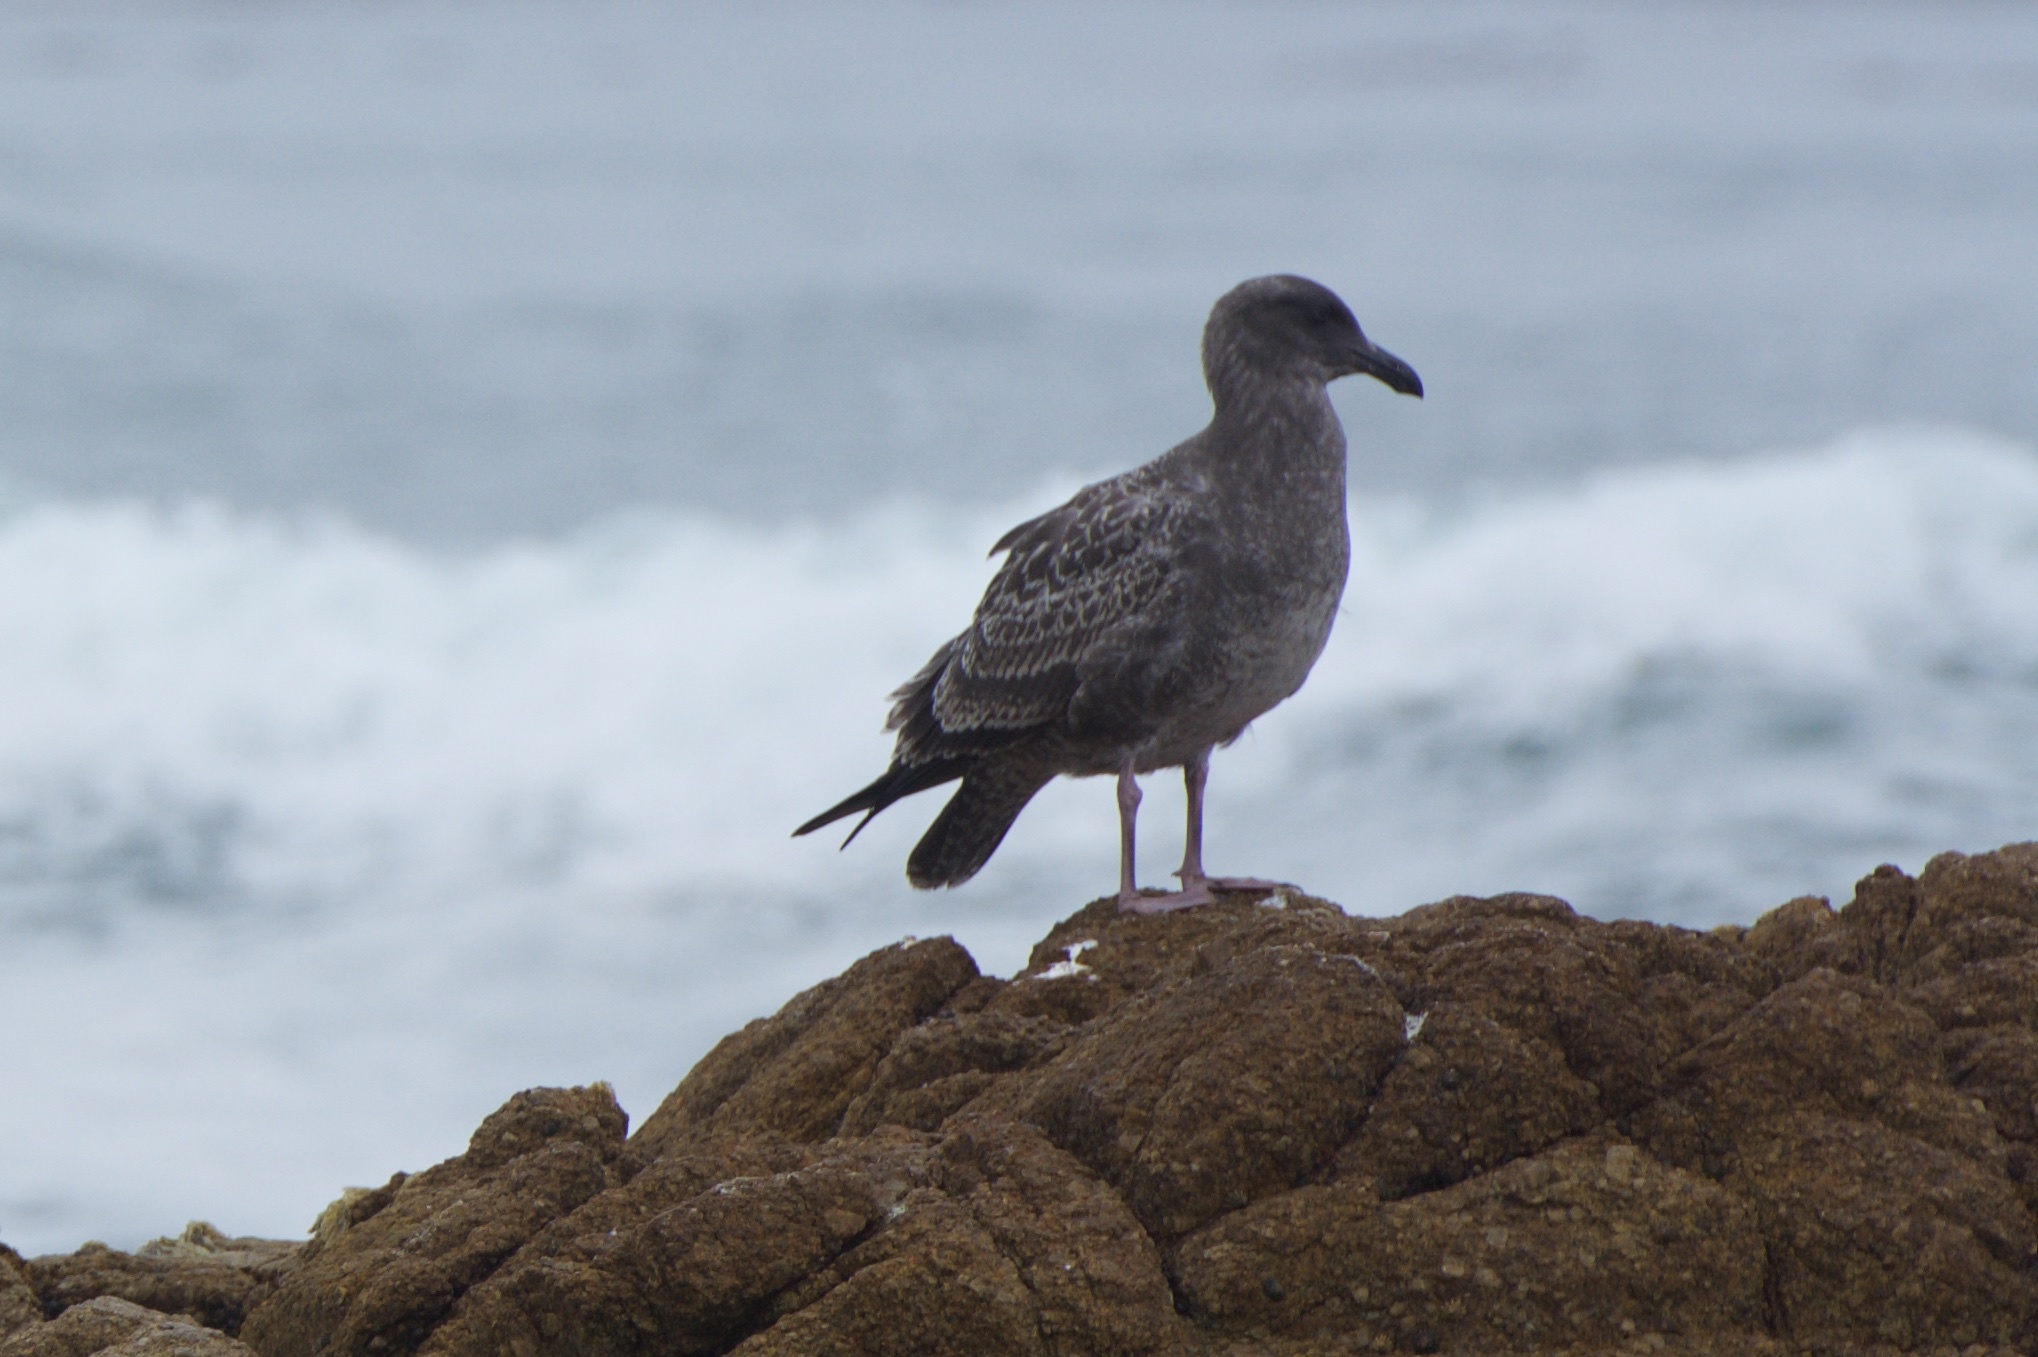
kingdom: Animalia
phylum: Chordata
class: Aves
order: Charadriiformes
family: Laridae
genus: Larus
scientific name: Larus occidentalis
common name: Western gull
